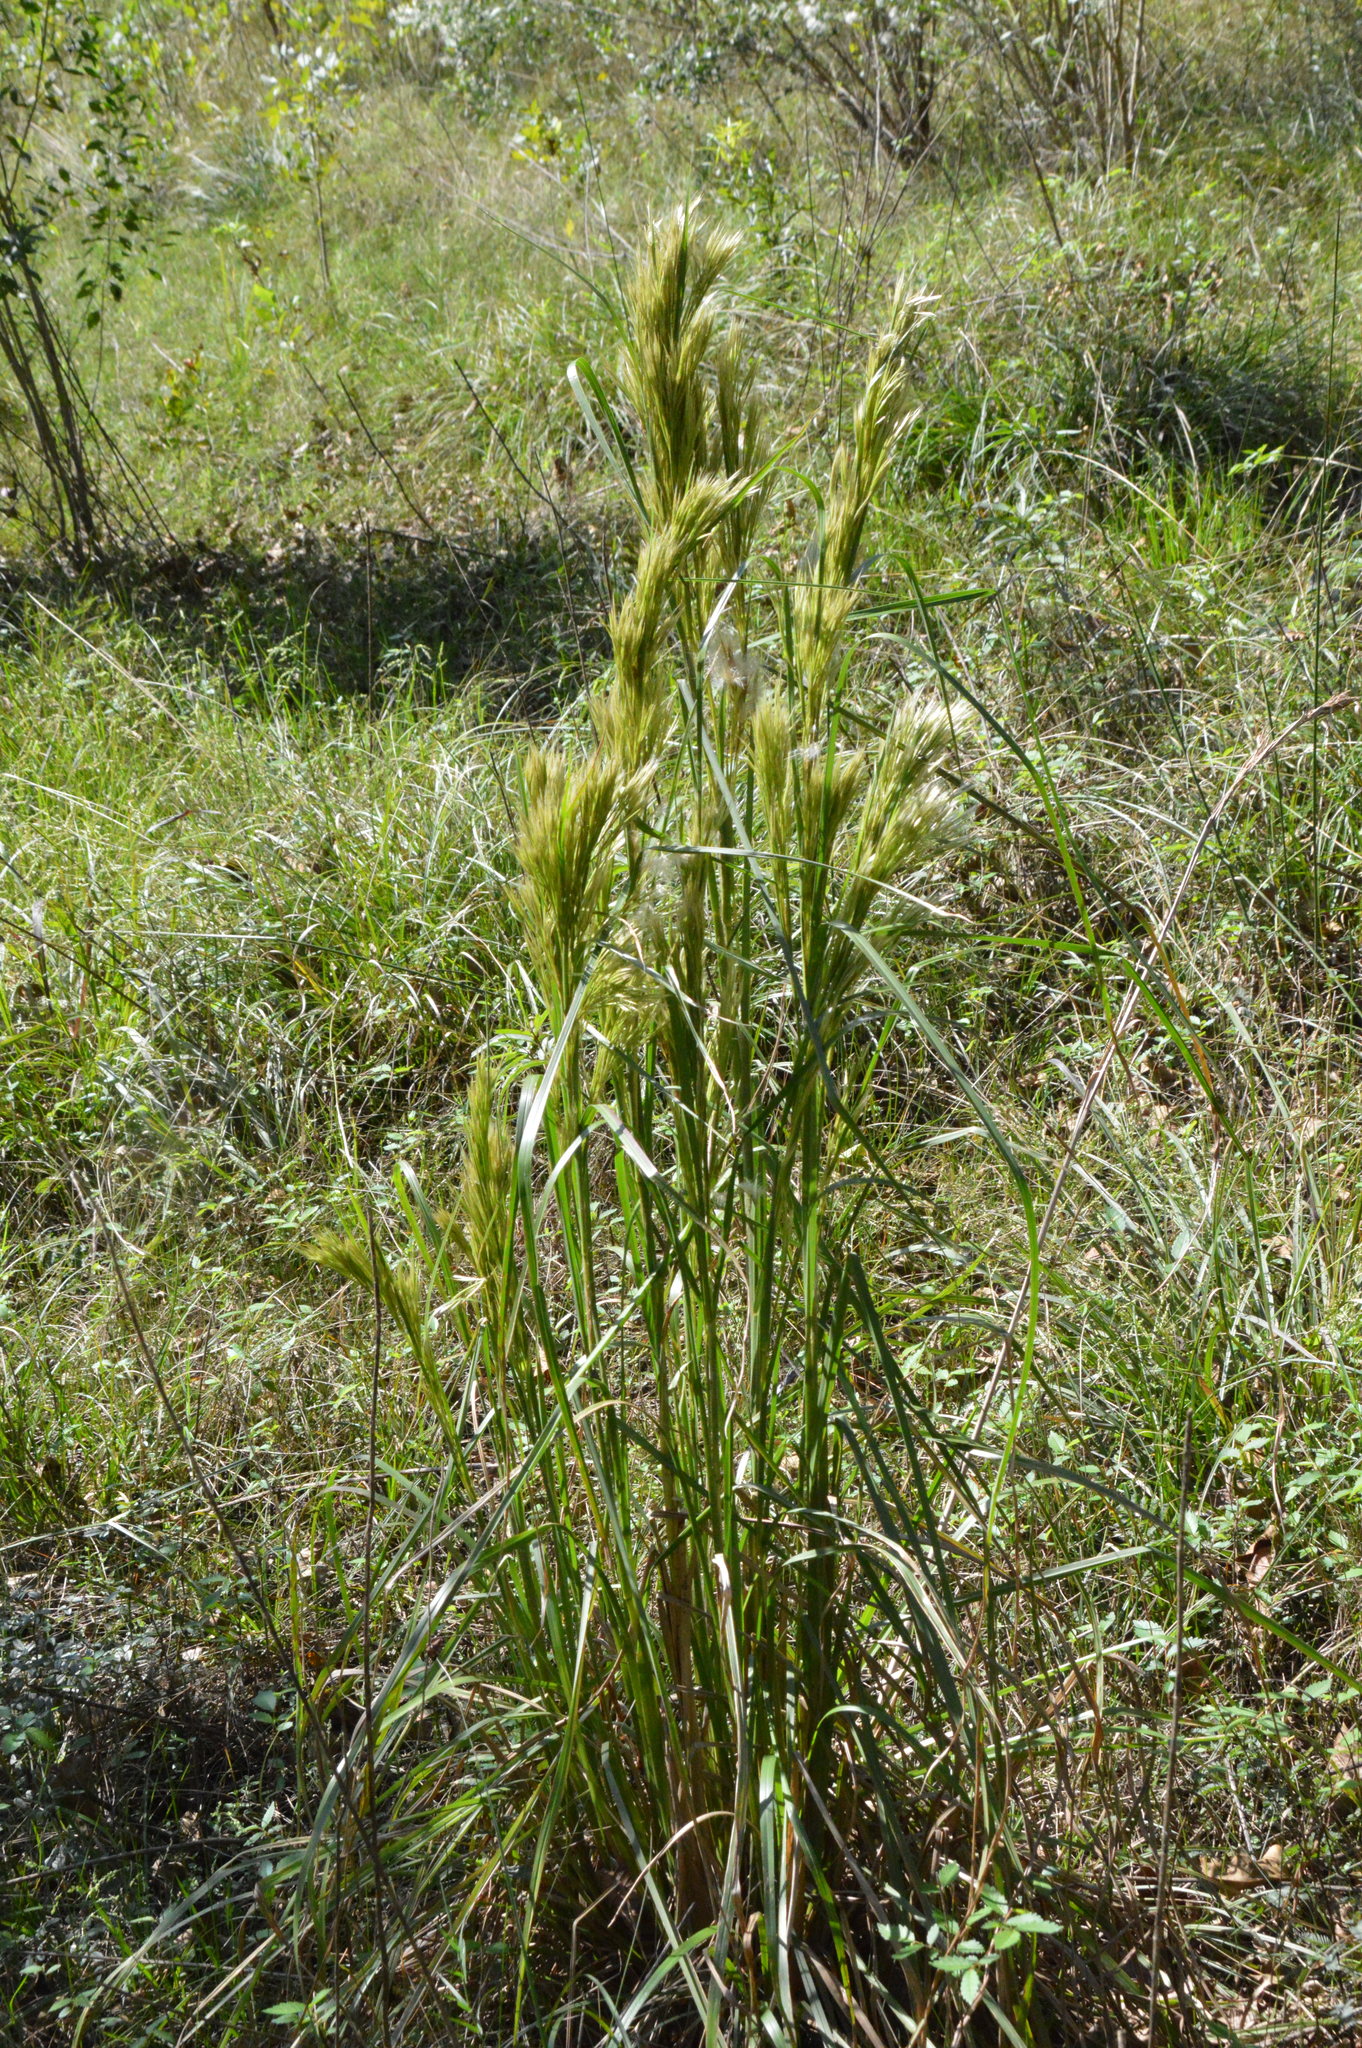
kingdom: Plantae
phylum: Tracheophyta
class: Liliopsida
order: Poales
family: Poaceae
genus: Andropogon
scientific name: Andropogon tenuispatheus
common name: Bushy bluestem
